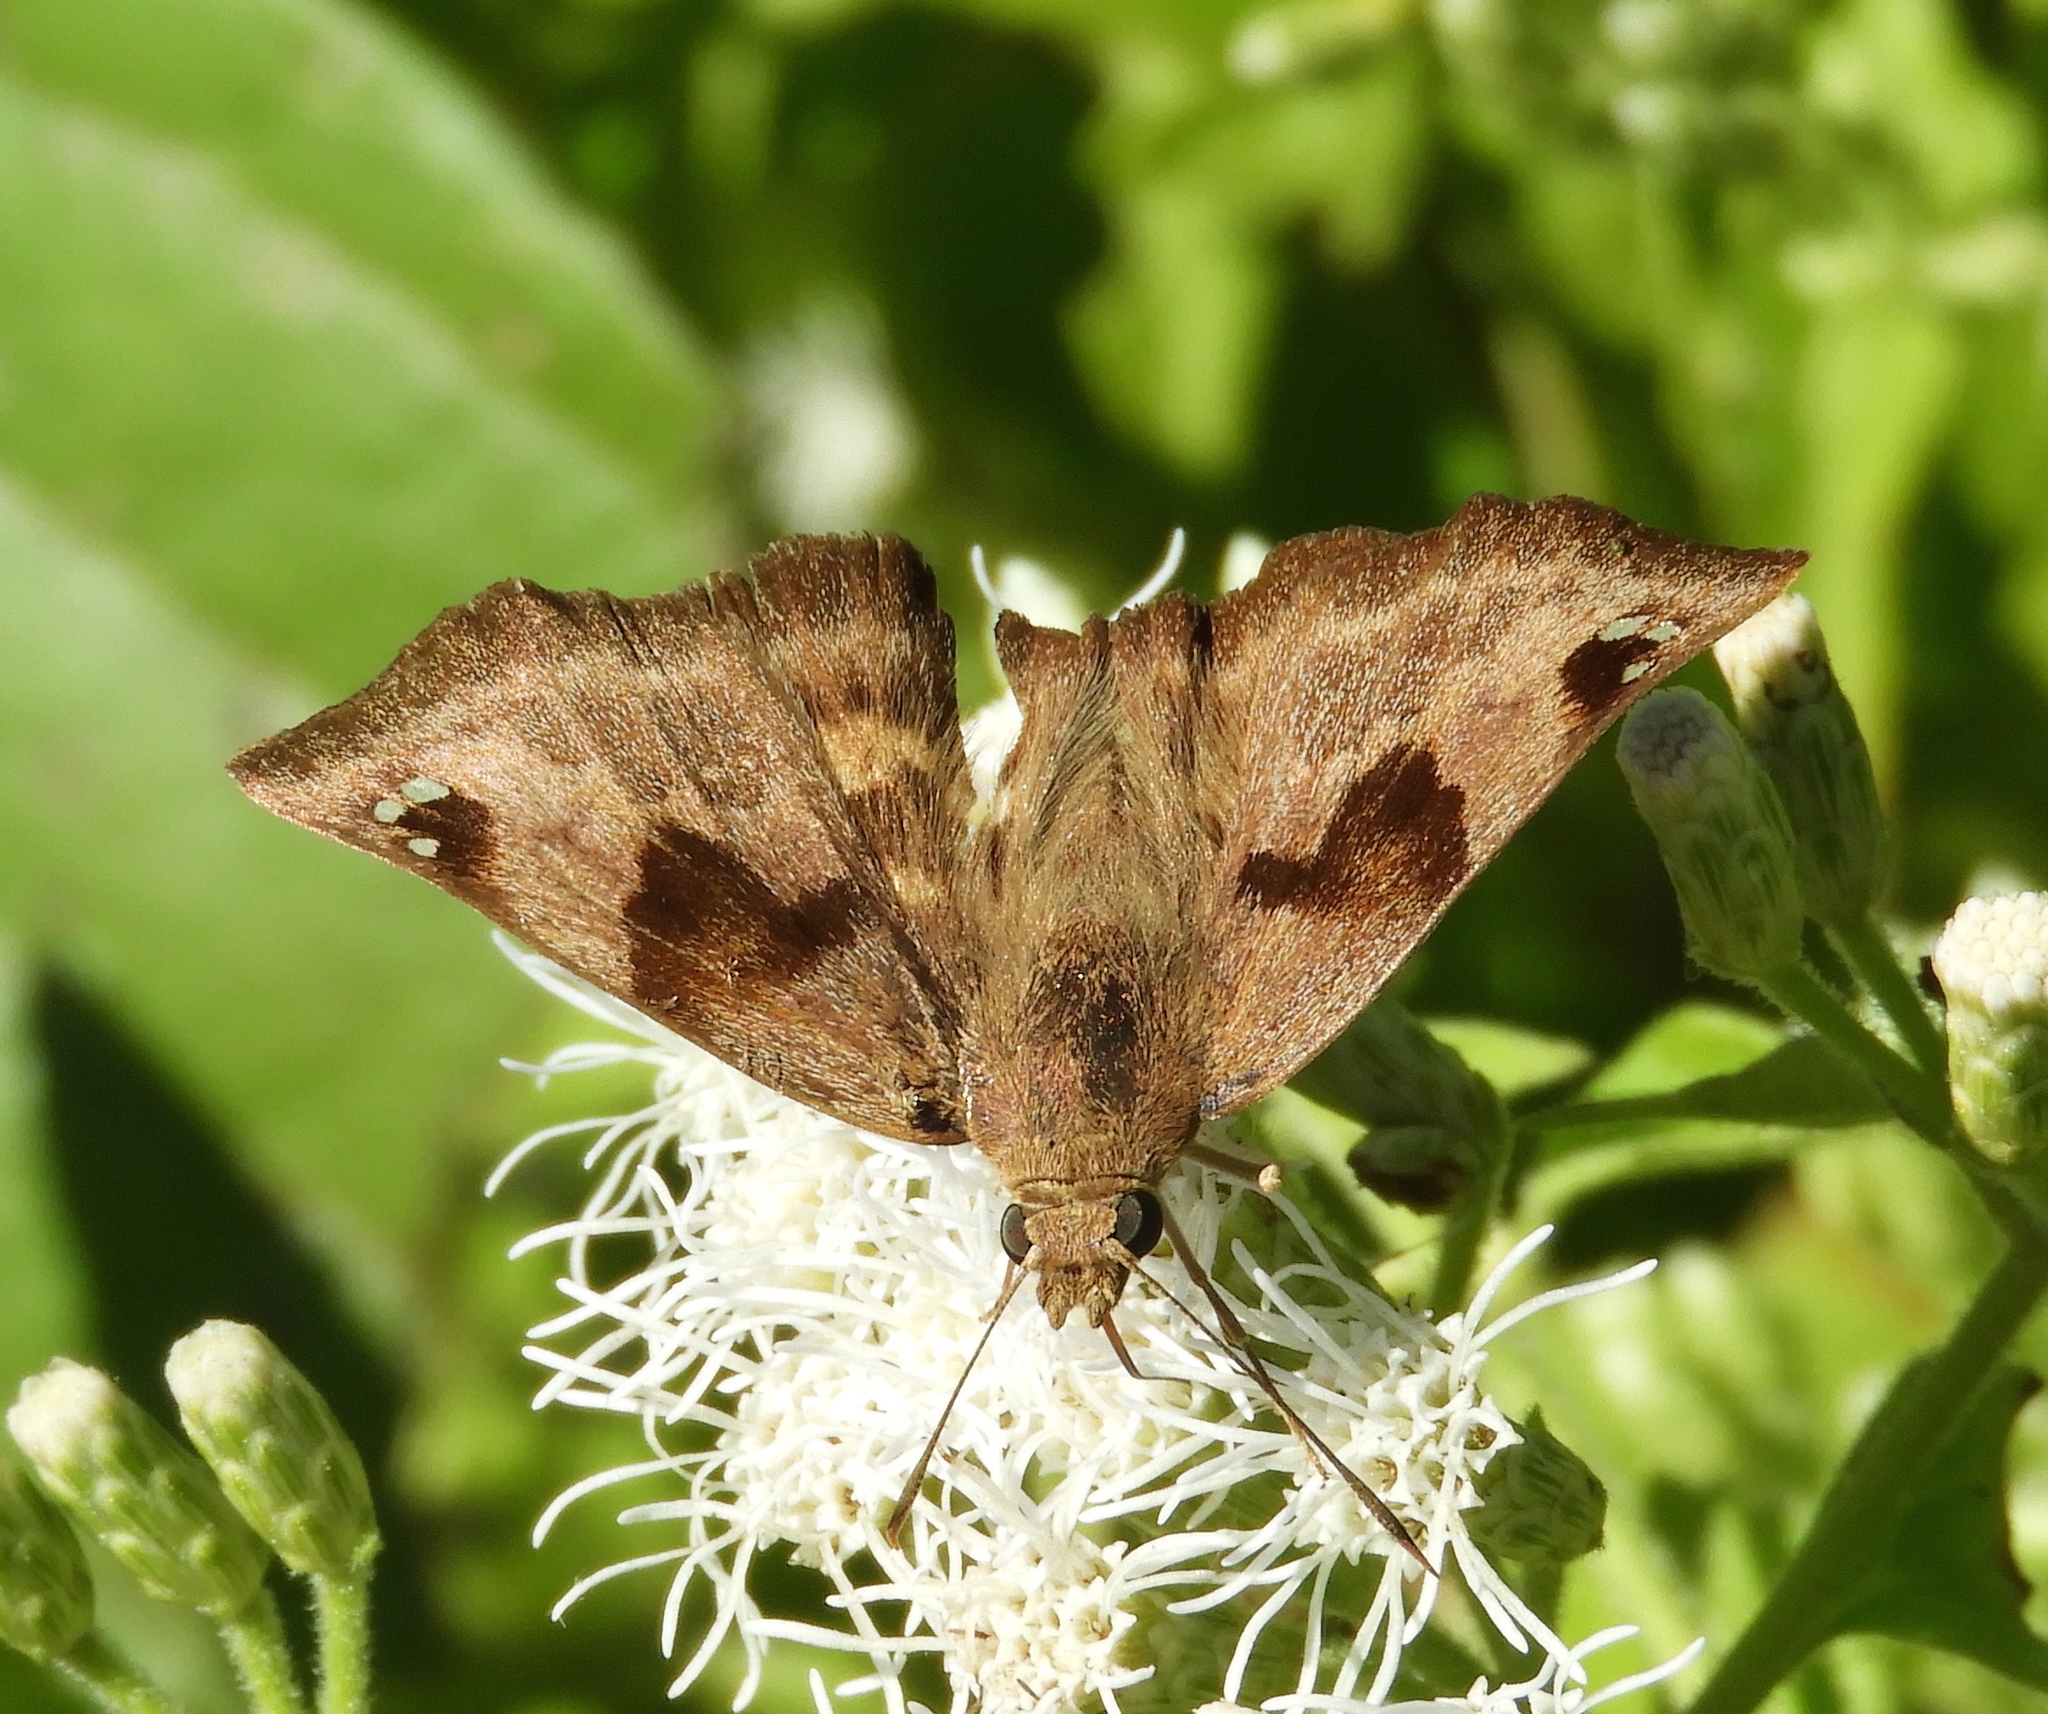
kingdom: Animalia
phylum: Arthropoda
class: Insecta
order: Lepidoptera
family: Hesperiidae
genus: Arteurotia
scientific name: Arteurotia tractipennis
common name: Starred skipper
